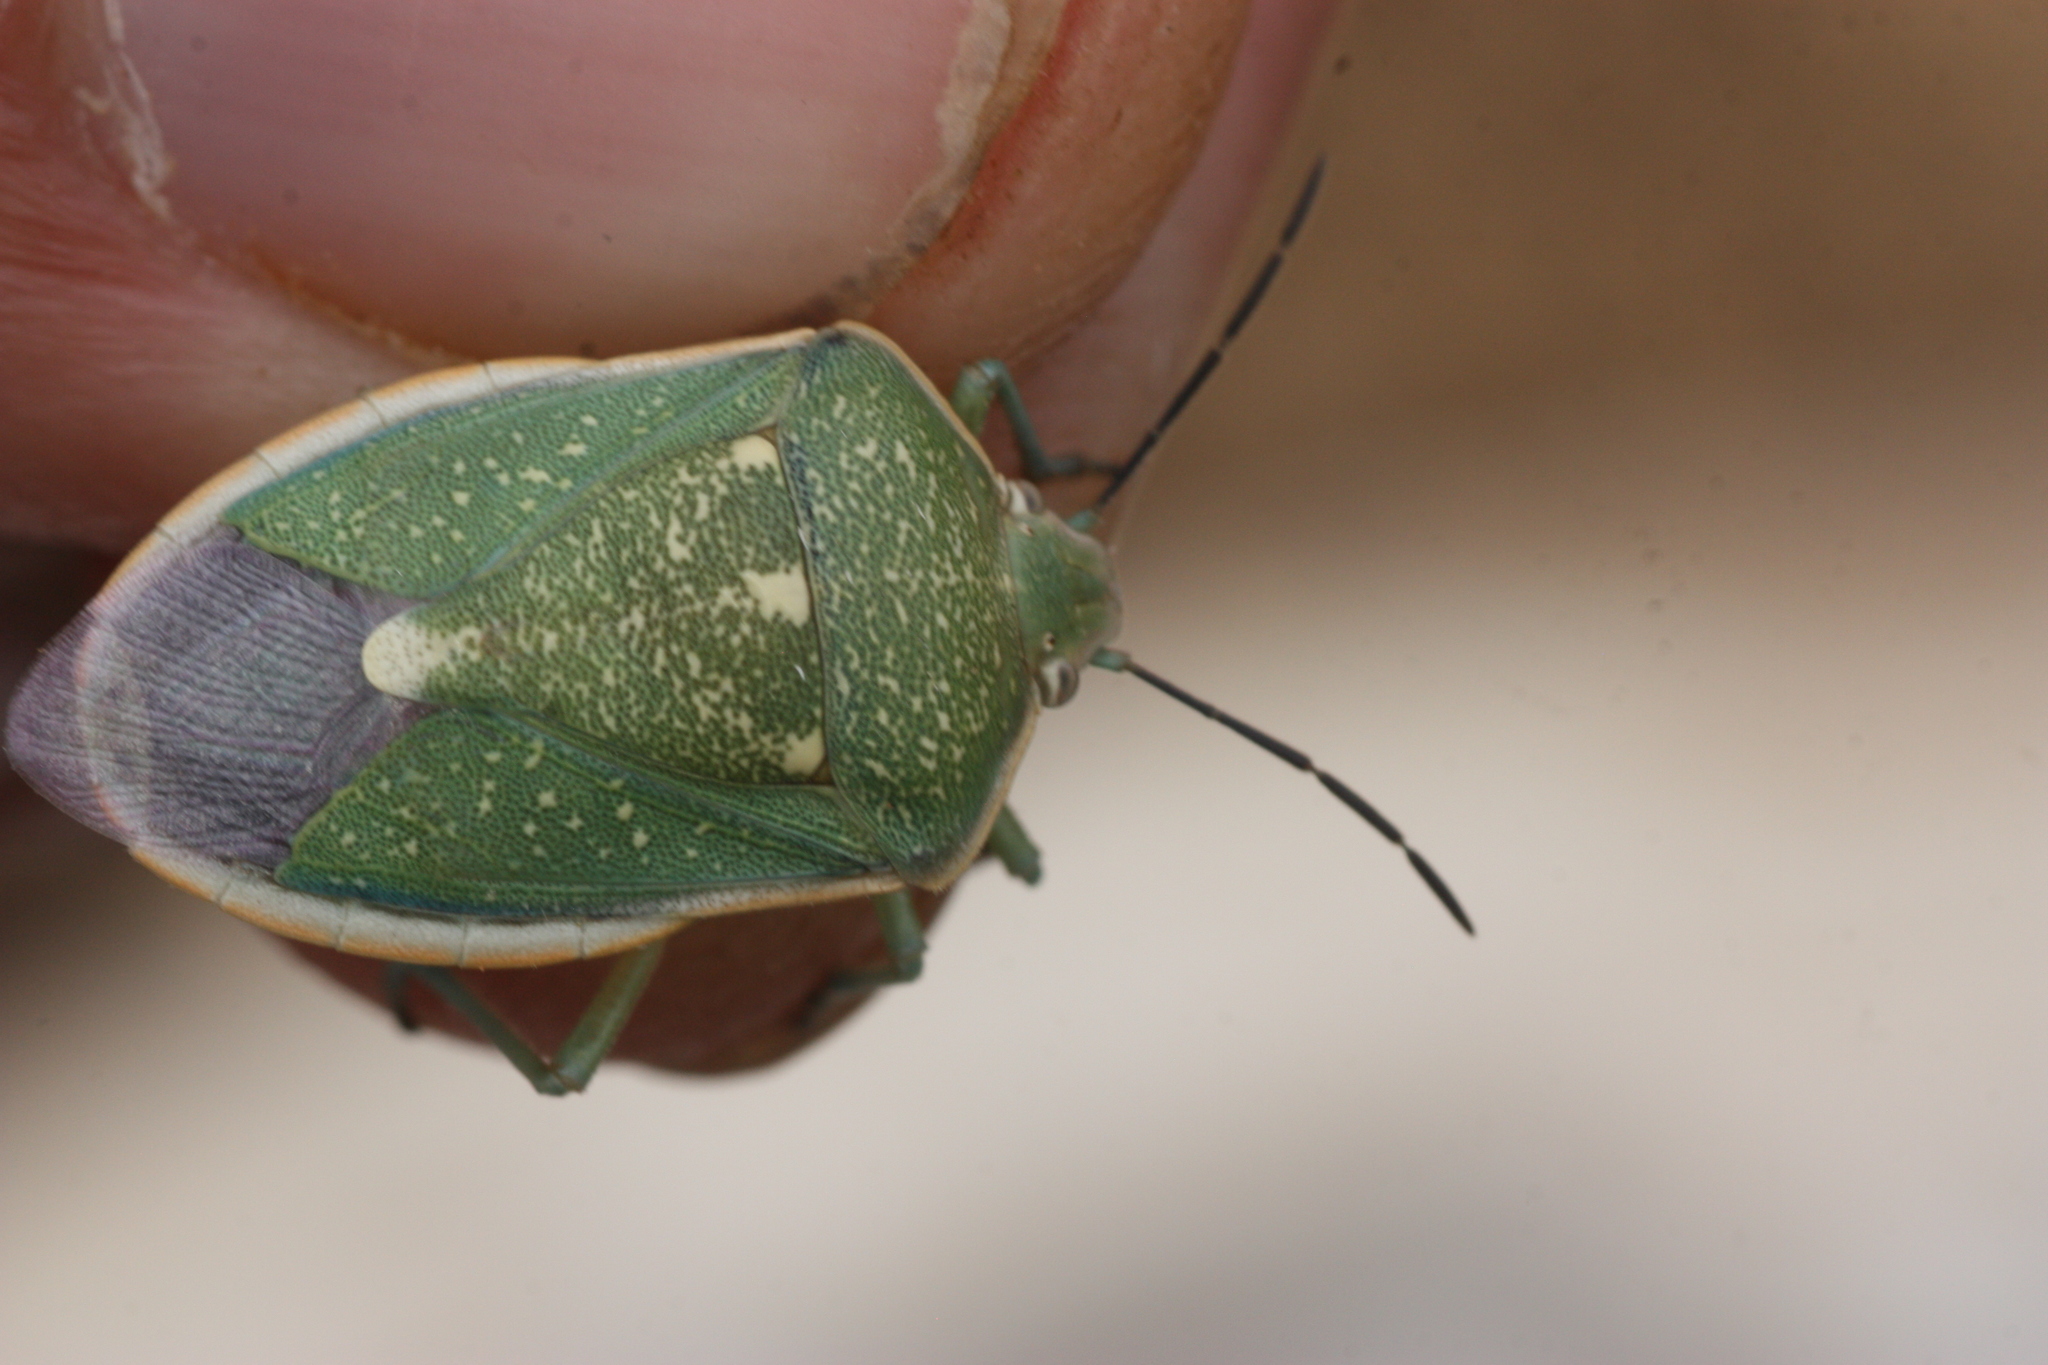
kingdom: Animalia
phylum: Arthropoda
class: Insecta
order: Hemiptera
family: Pentatomidae
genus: Chlorochroa
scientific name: Chlorochroa sayi
